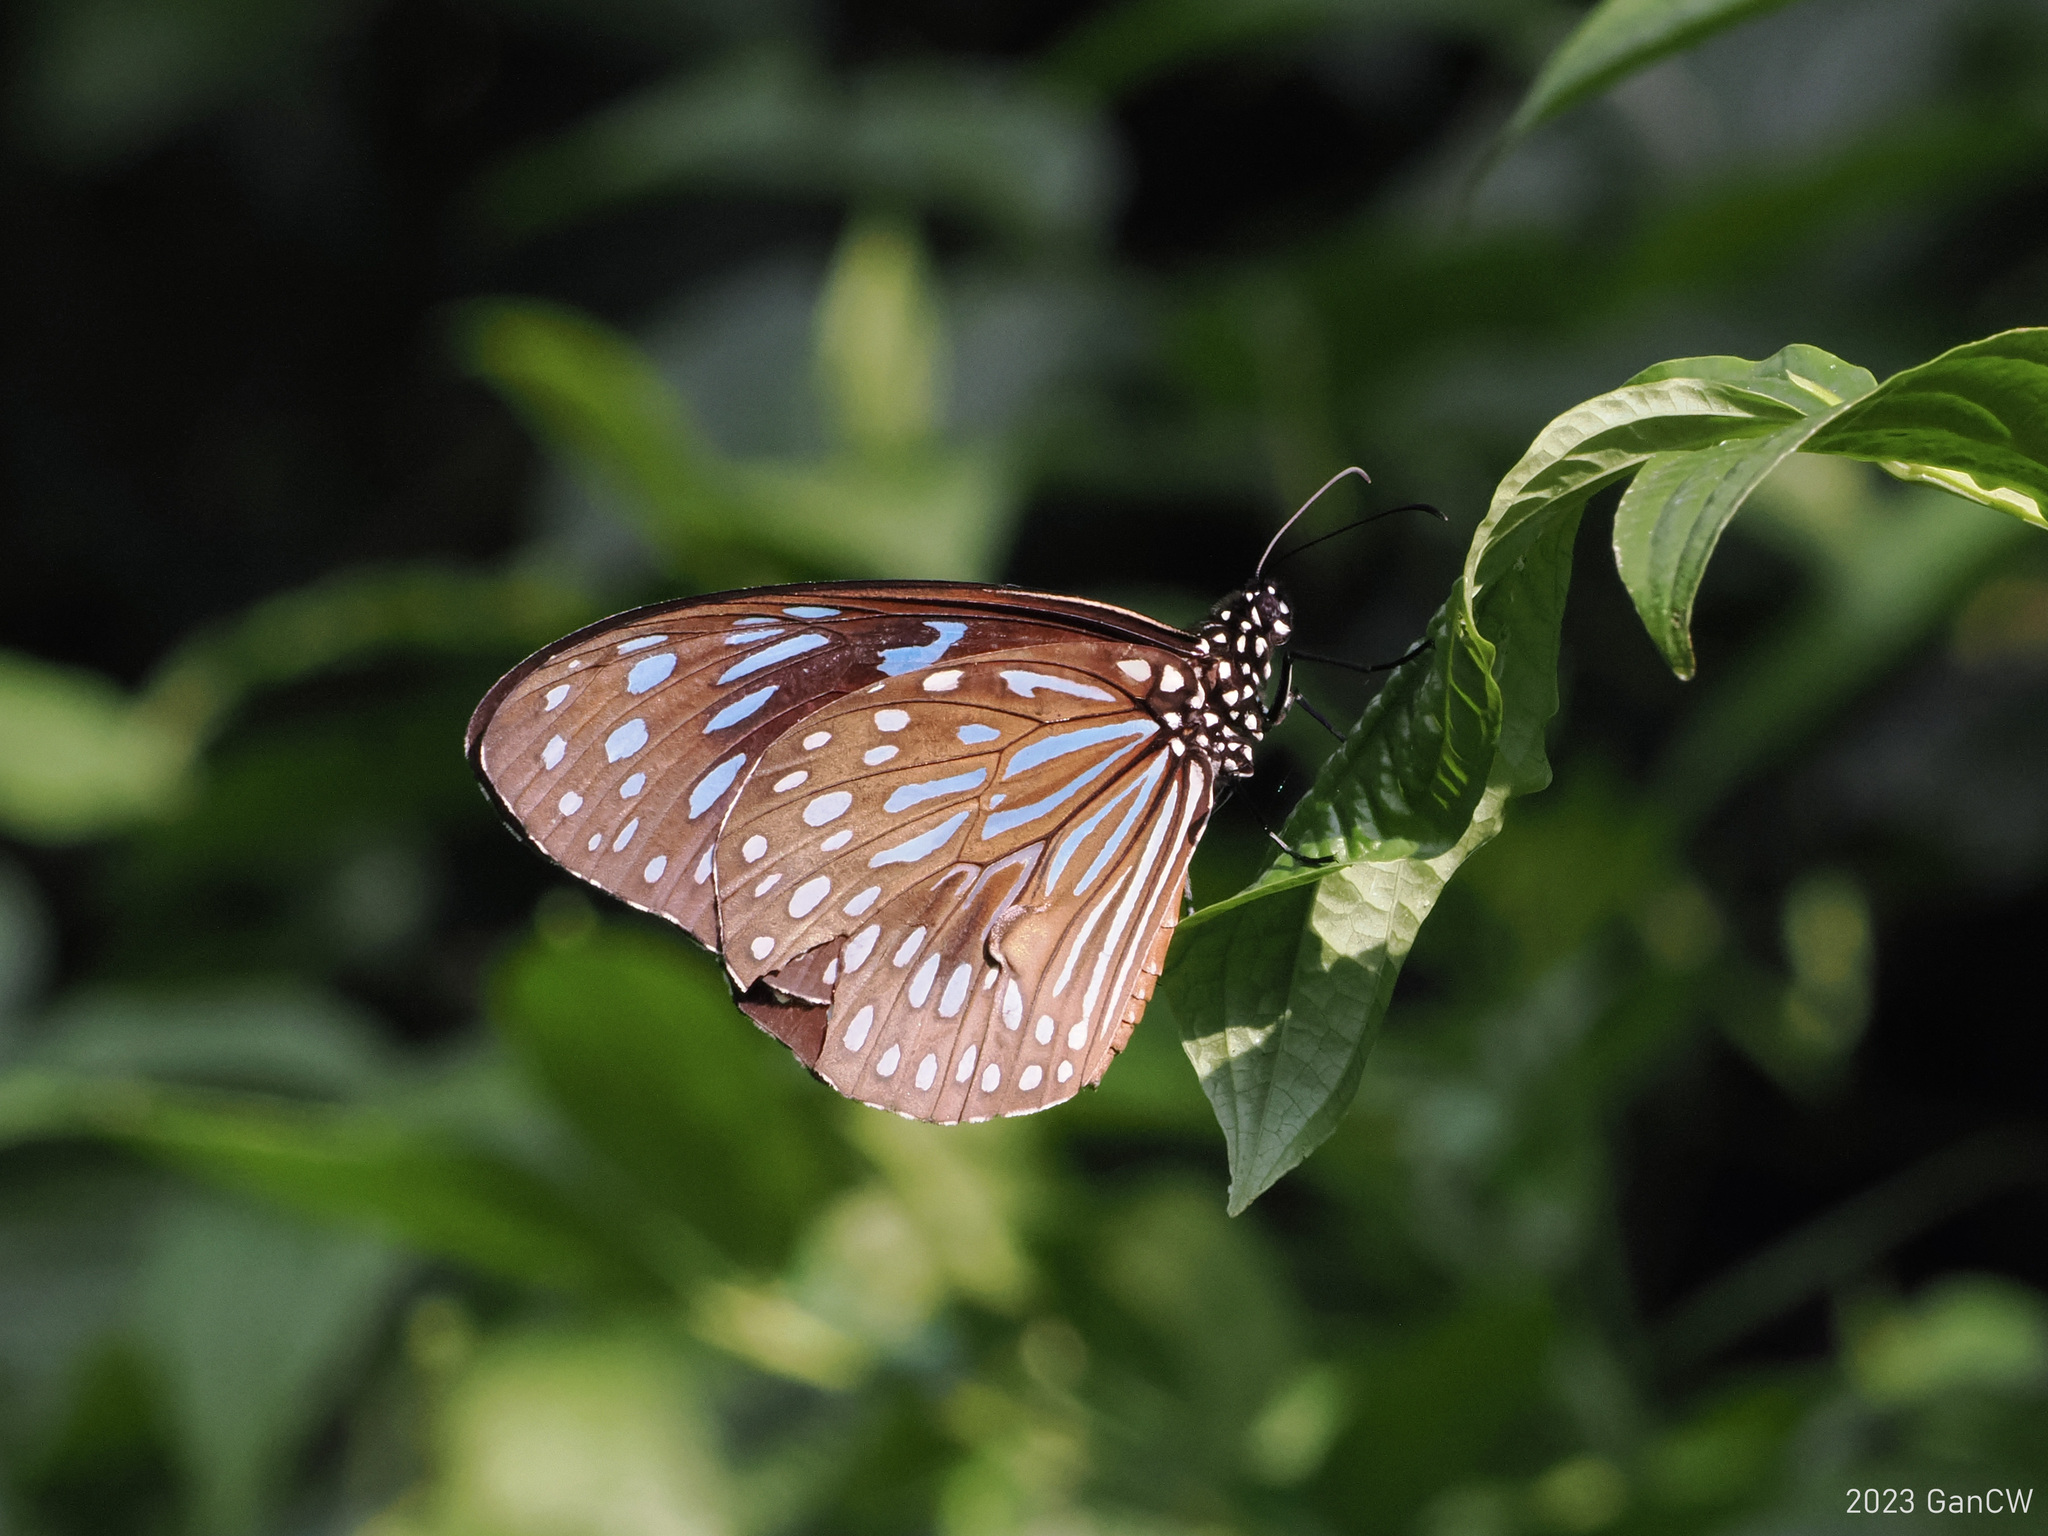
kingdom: Animalia
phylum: Arthropoda
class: Insecta
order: Lepidoptera
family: Nymphalidae
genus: Tirumala
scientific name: Tirumala septentrionis
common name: Dark blue tiger butterfly
